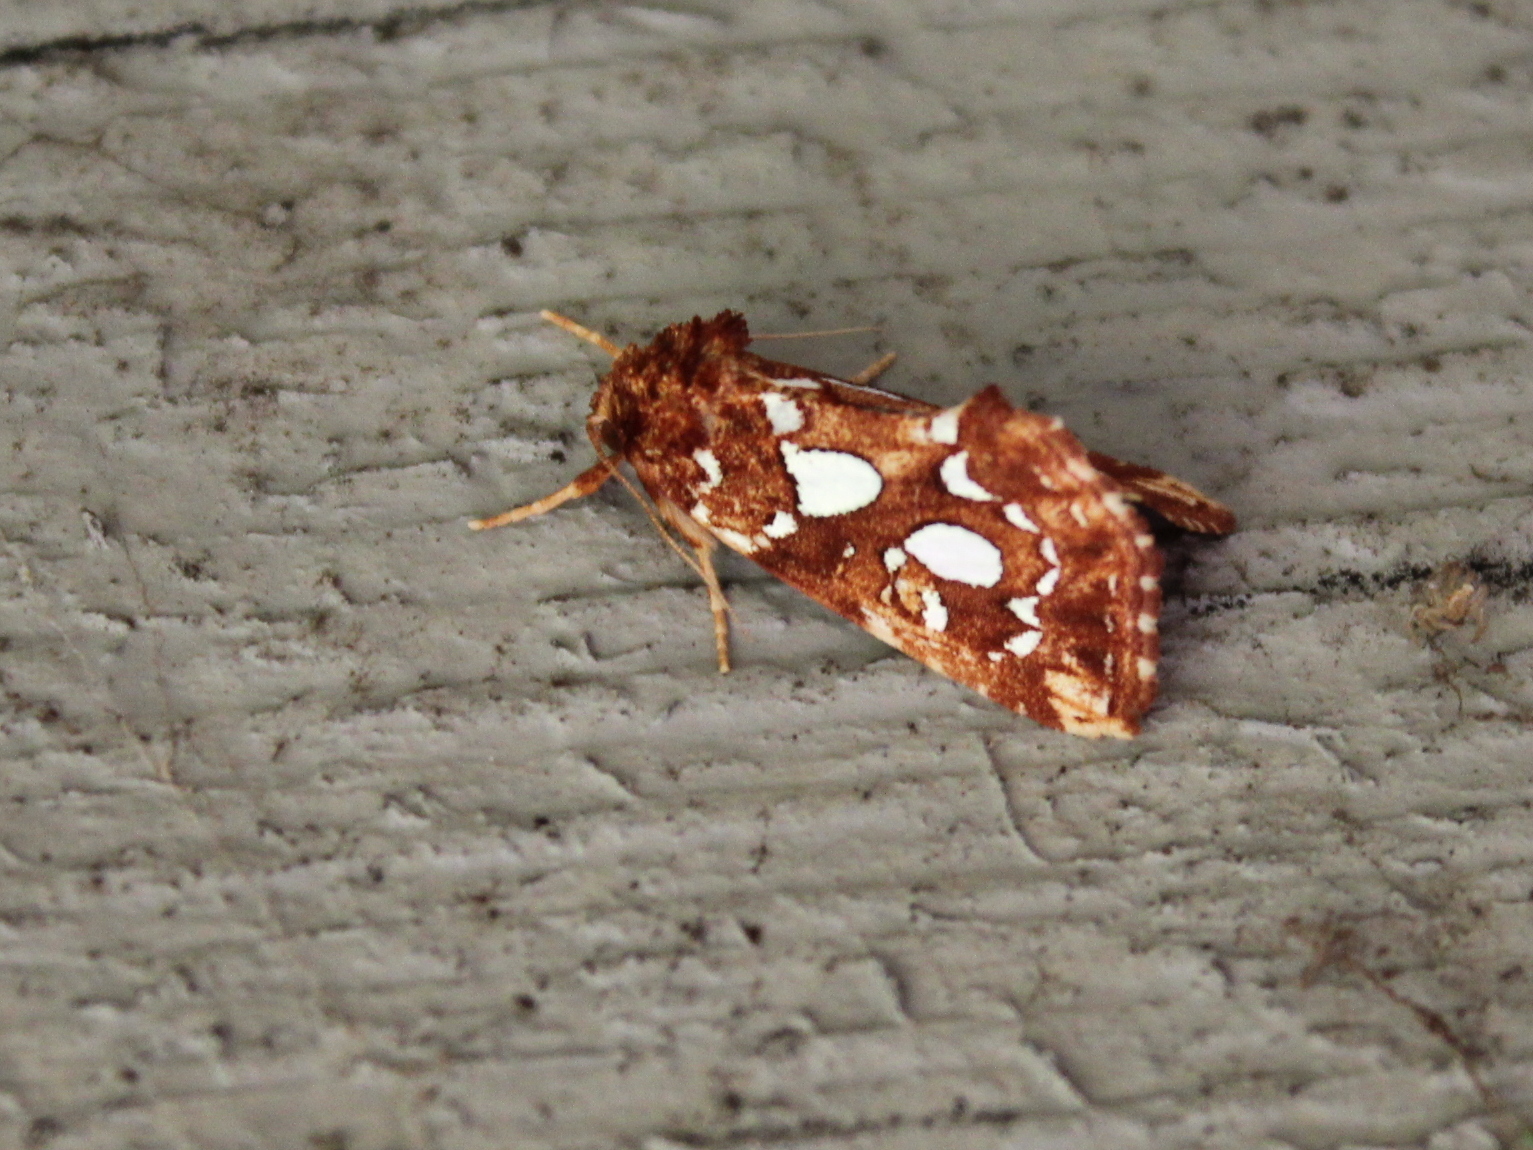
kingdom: Animalia
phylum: Arthropoda
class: Insecta
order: Lepidoptera
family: Noctuidae
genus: Callopistria
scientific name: Callopistria cordata
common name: Silver-spotted fern moth
